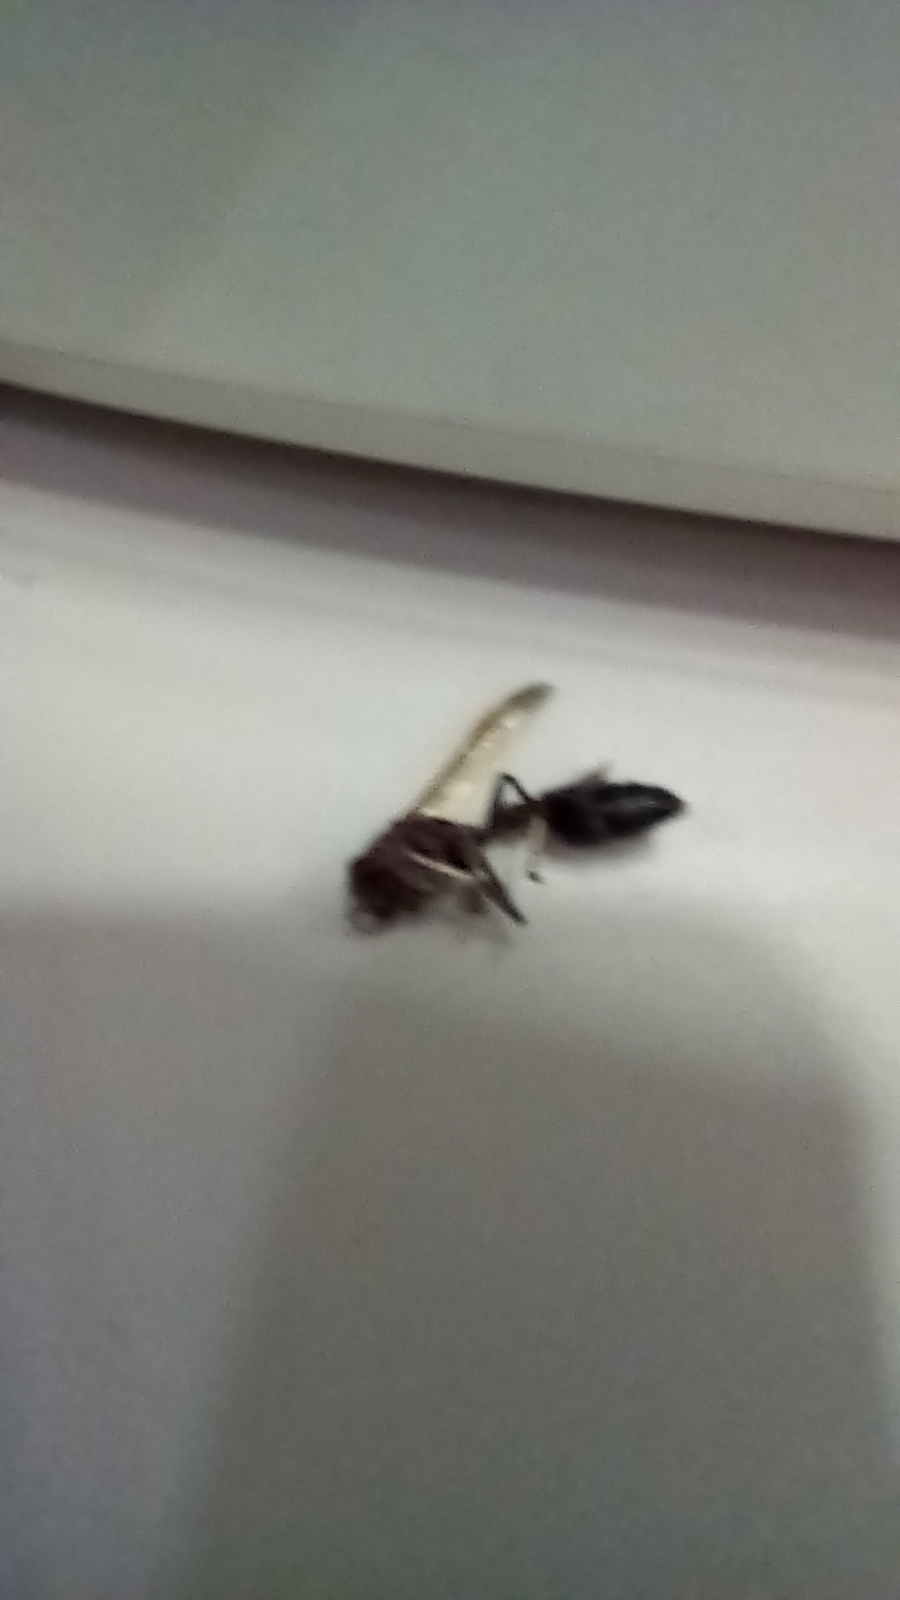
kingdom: Animalia
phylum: Arthropoda
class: Insecta
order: Hymenoptera
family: Vespidae
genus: Ropalidia
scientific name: Ropalidia magnanima
